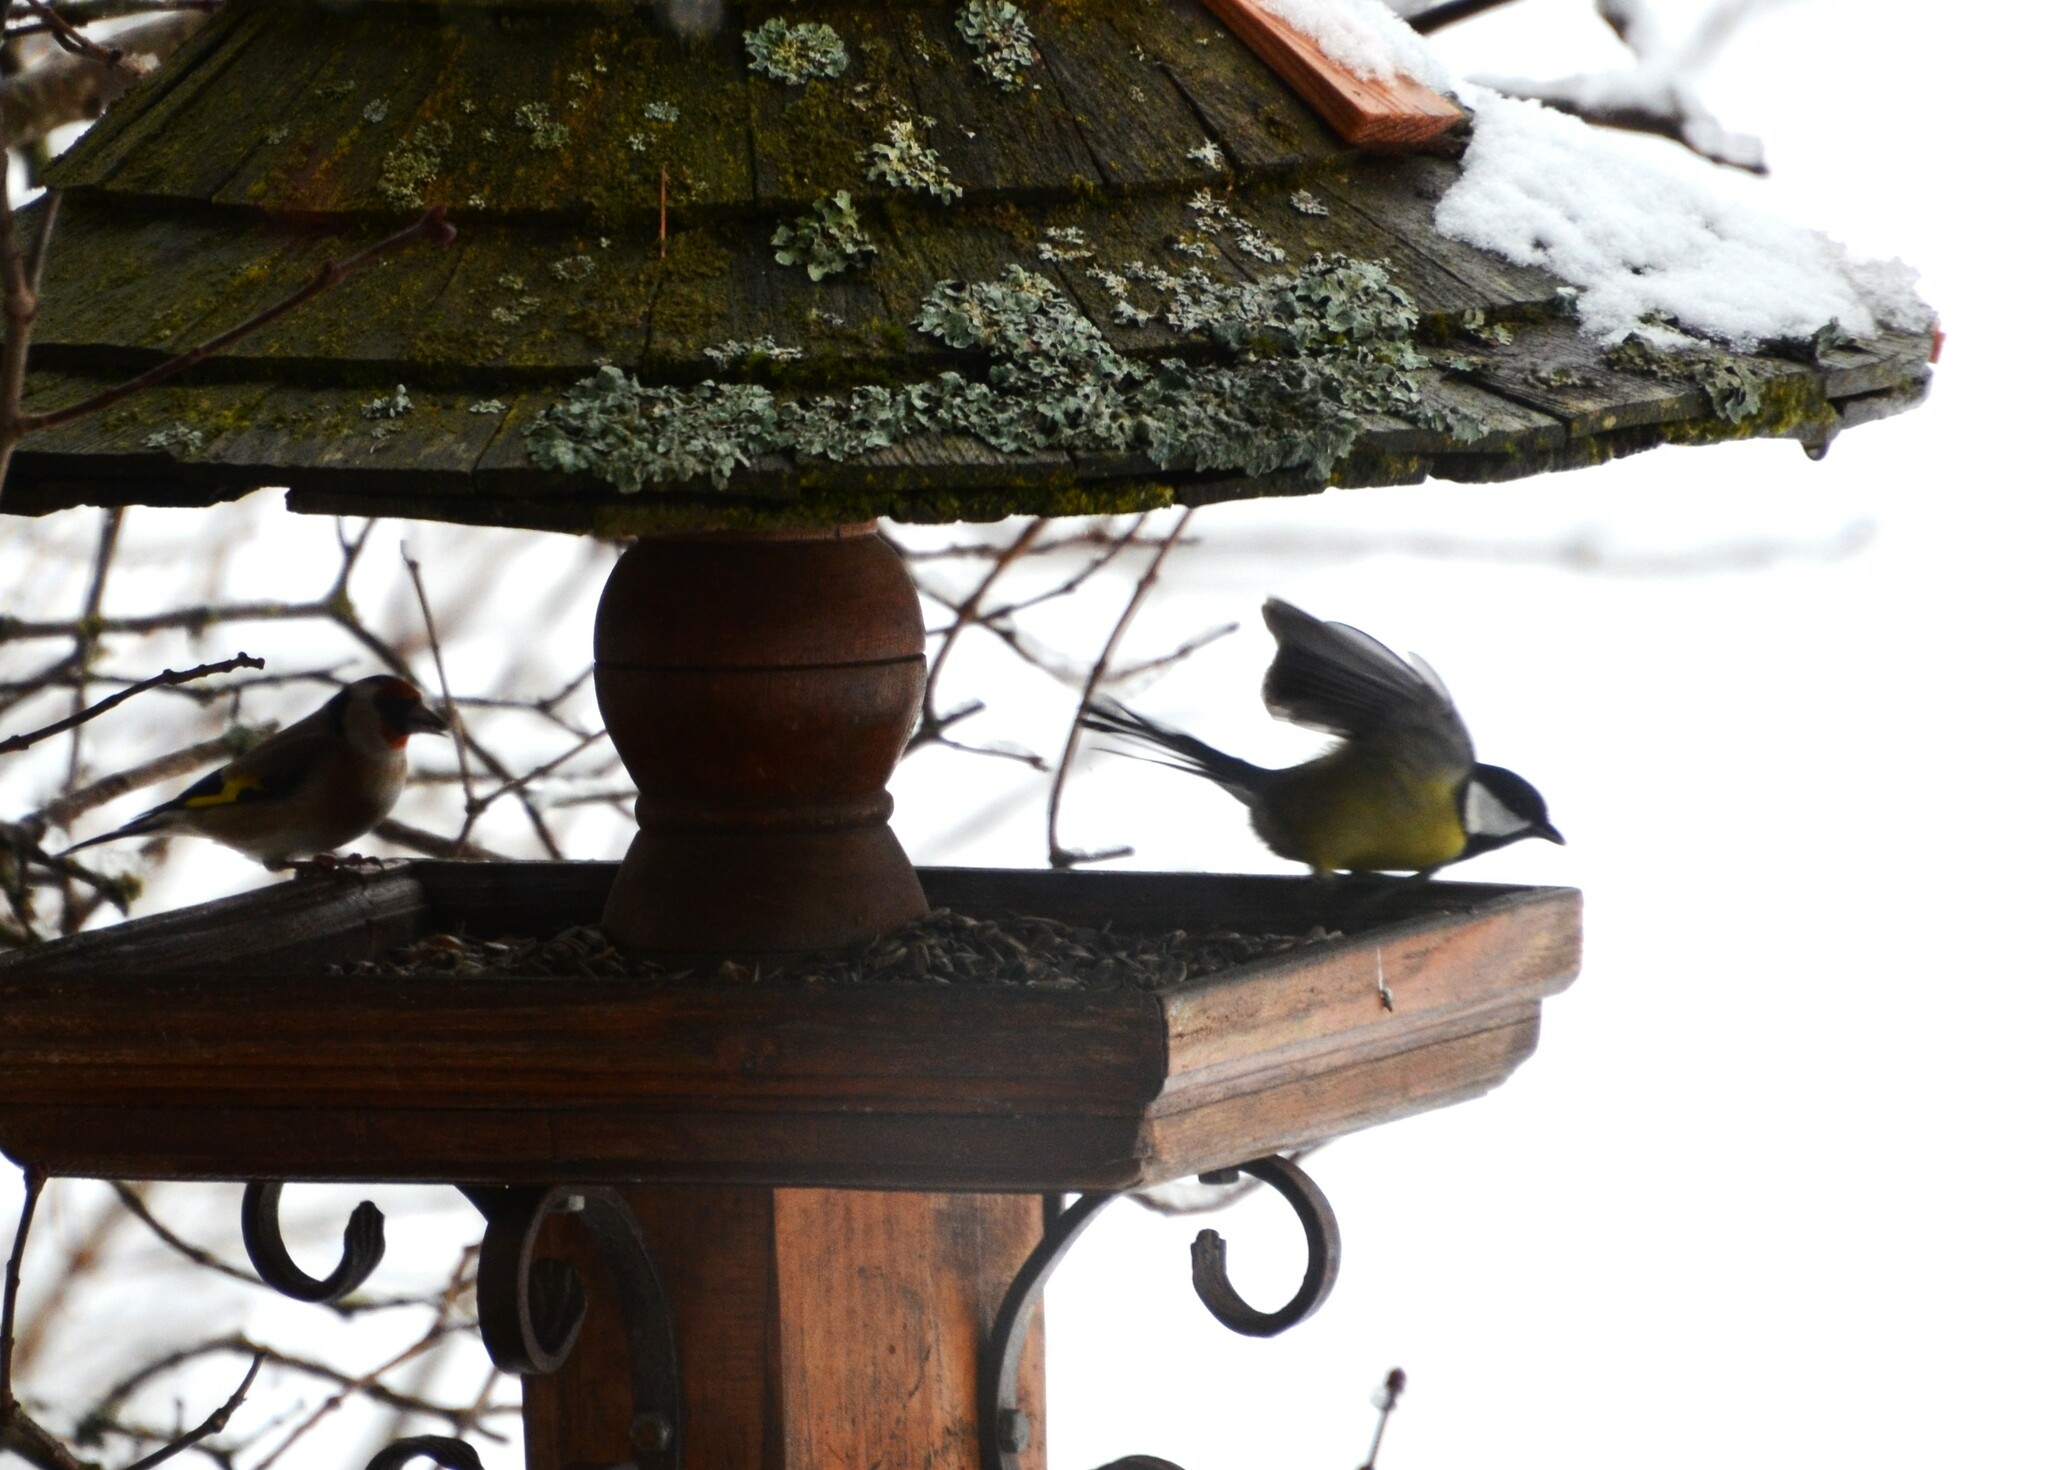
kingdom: Animalia
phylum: Chordata
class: Aves
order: Passeriformes
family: Paridae
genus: Parus
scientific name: Parus major
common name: Great tit
